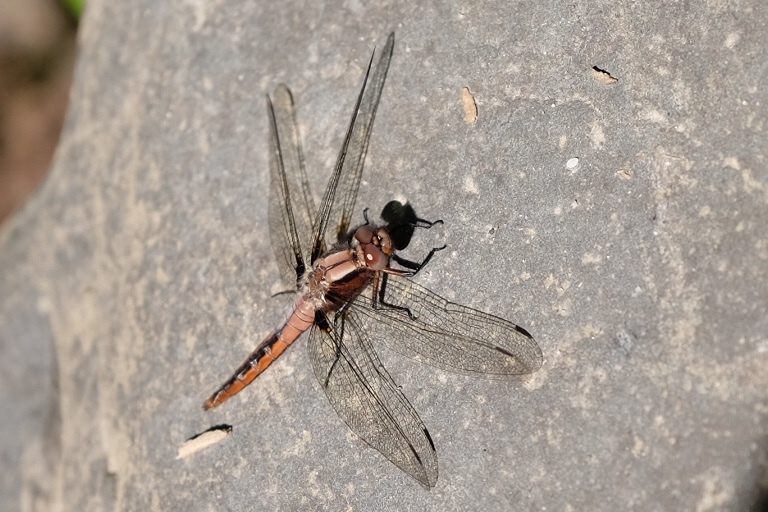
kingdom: Animalia
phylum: Arthropoda
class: Insecta
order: Odonata
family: Libellulidae
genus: Ladona
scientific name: Ladona julia
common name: Chalk-fronted corporal
